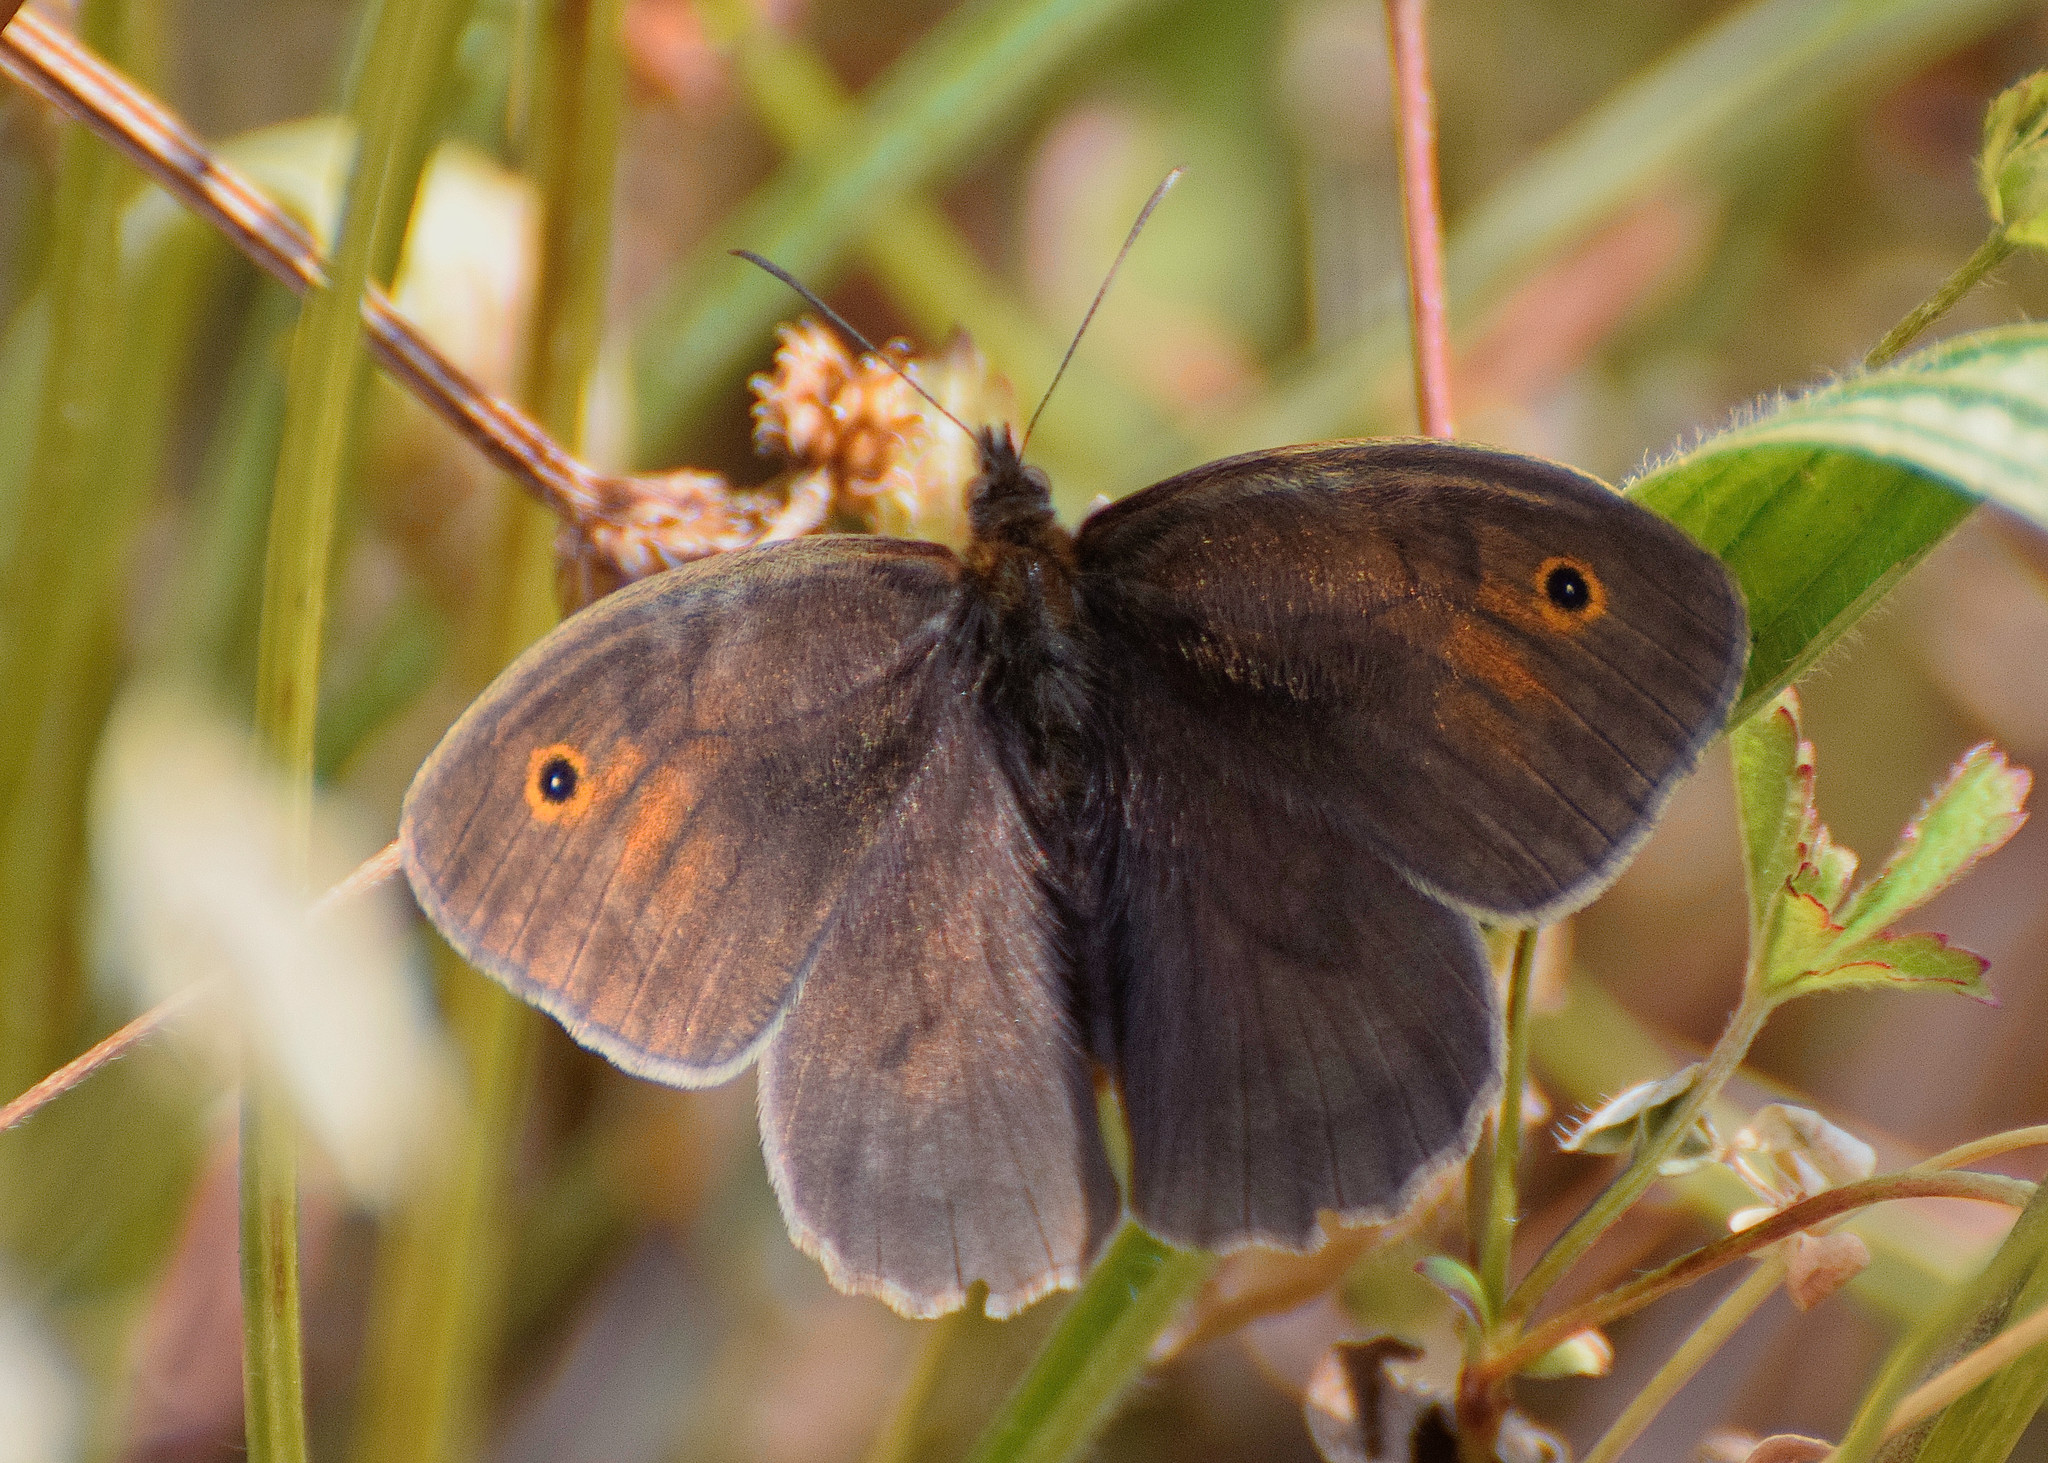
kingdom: Animalia
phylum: Arthropoda
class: Insecta
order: Lepidoptera
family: Nymphalidae
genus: Maniola
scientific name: Maniola jurtina
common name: Meadow brown
